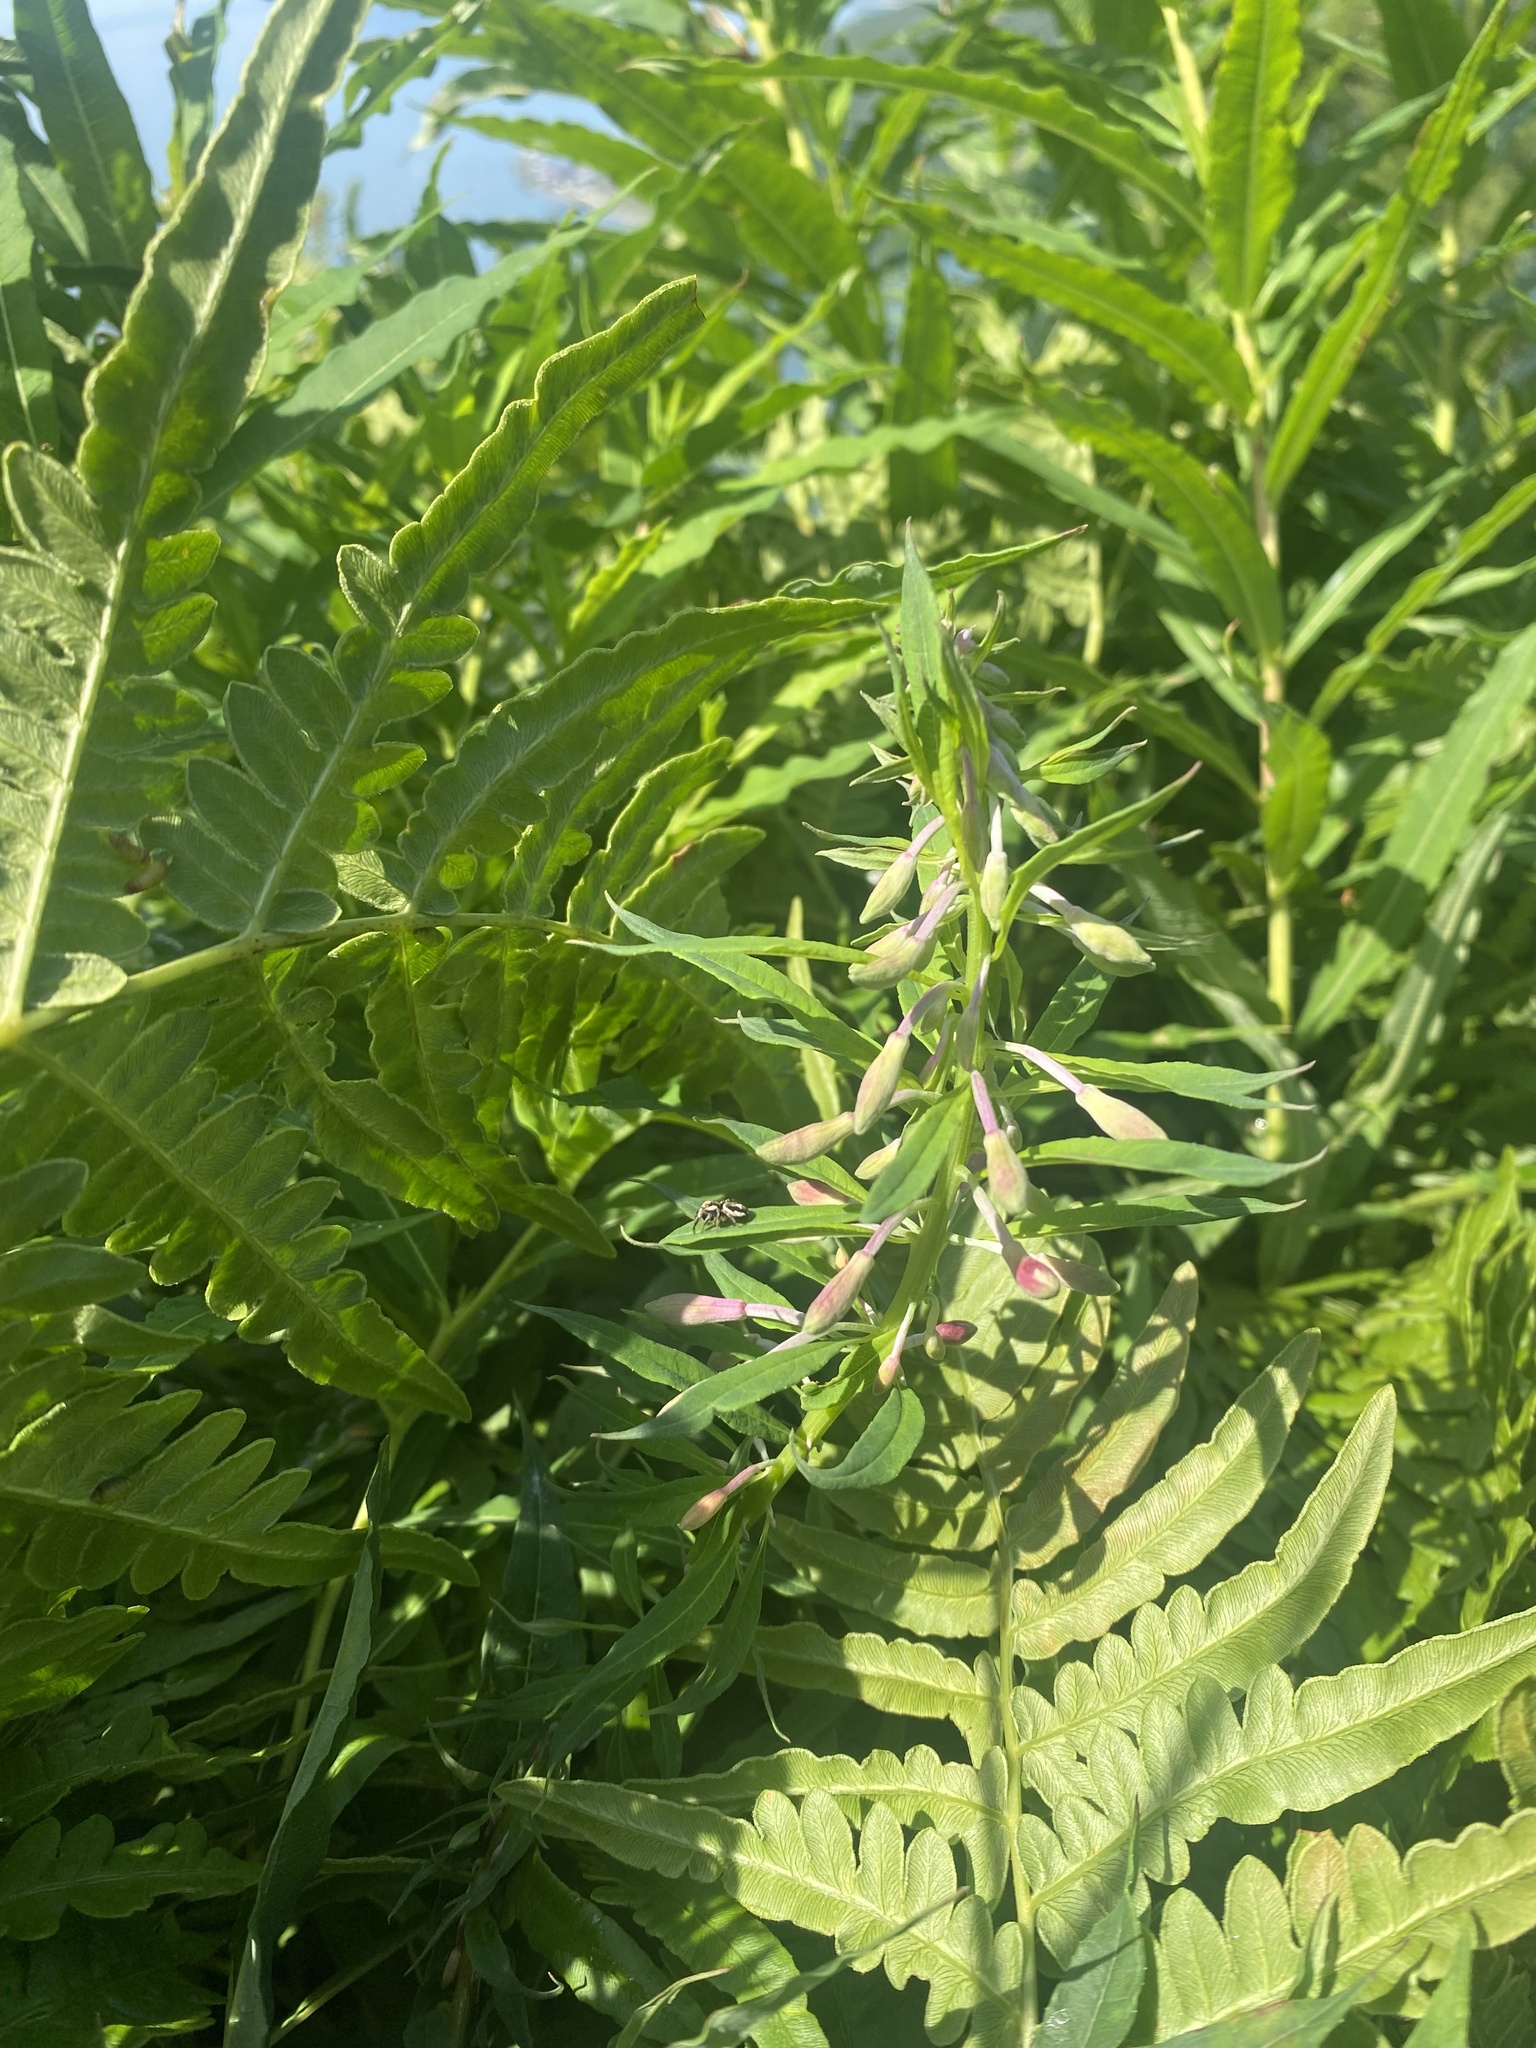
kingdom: Plantae
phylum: Tracheophyta
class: Magnoliopsida
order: Myrtales
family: Onagraceae
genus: Chamaenerion
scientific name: Chamaenerion angustifolium
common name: Fireweed
